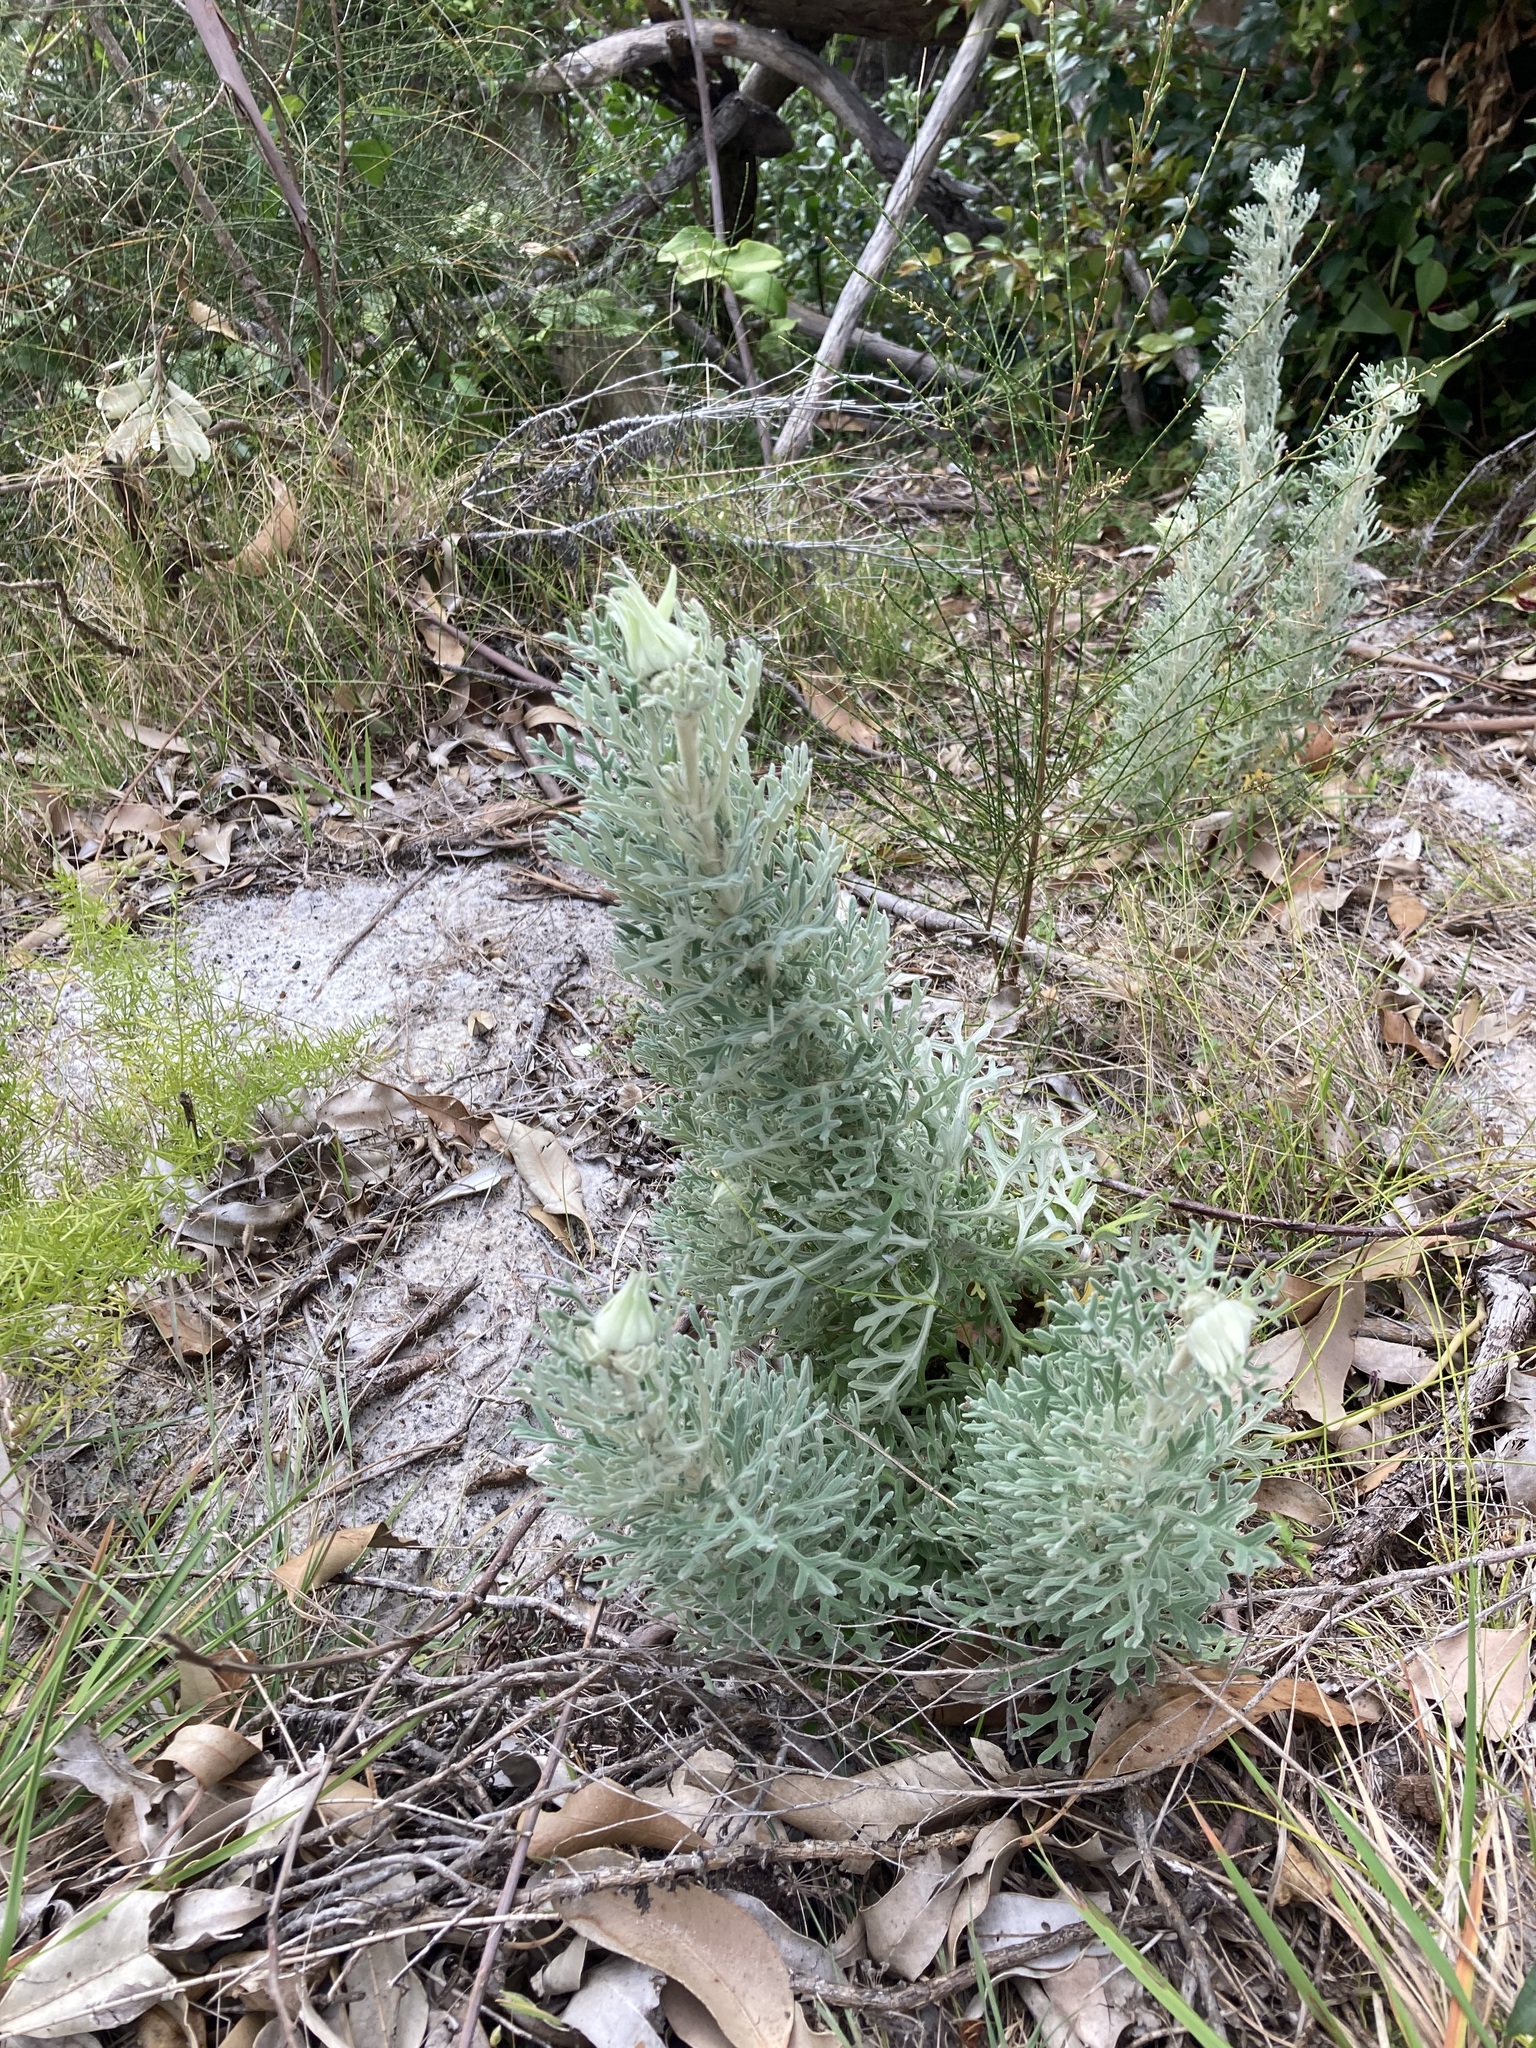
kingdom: Plantae
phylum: Tracheophyta
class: Magnoliopsida
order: Apiales
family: Apiaceae
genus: Actinotus
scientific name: Actinotus helianthi
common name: Flannel-flower
